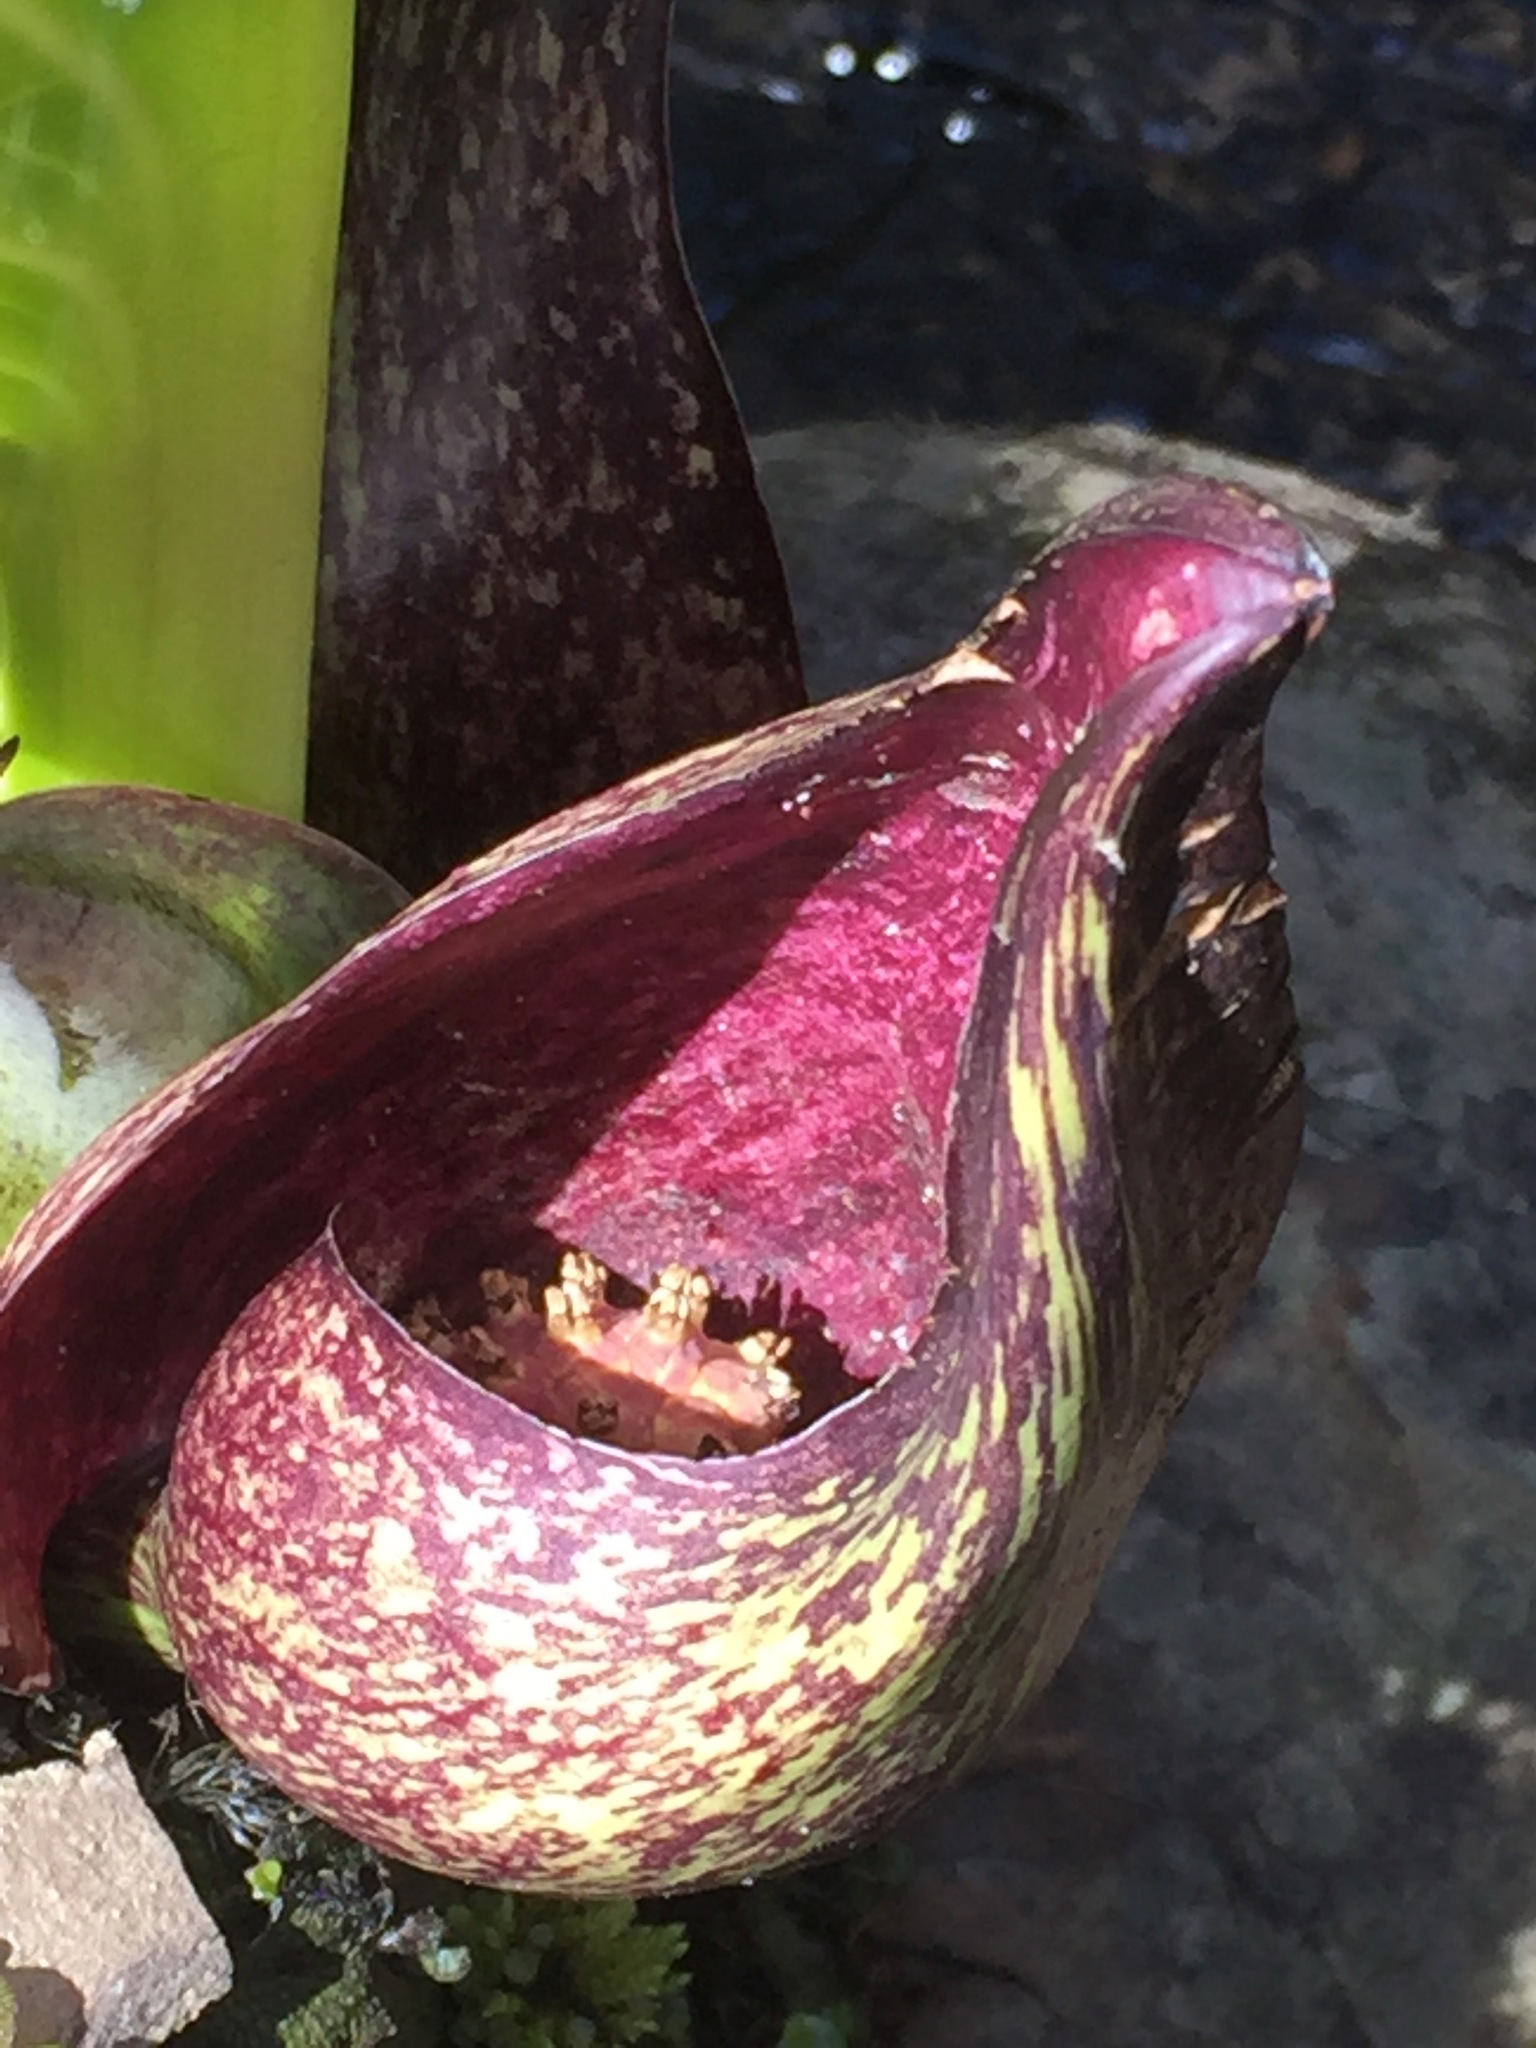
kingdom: Plantae
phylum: Tracheophyta
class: Liliopsida
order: Alismatales
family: Araceae
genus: Symplocarpus
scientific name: Symplocarpus foetidus
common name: Eastern skunk cabbage
